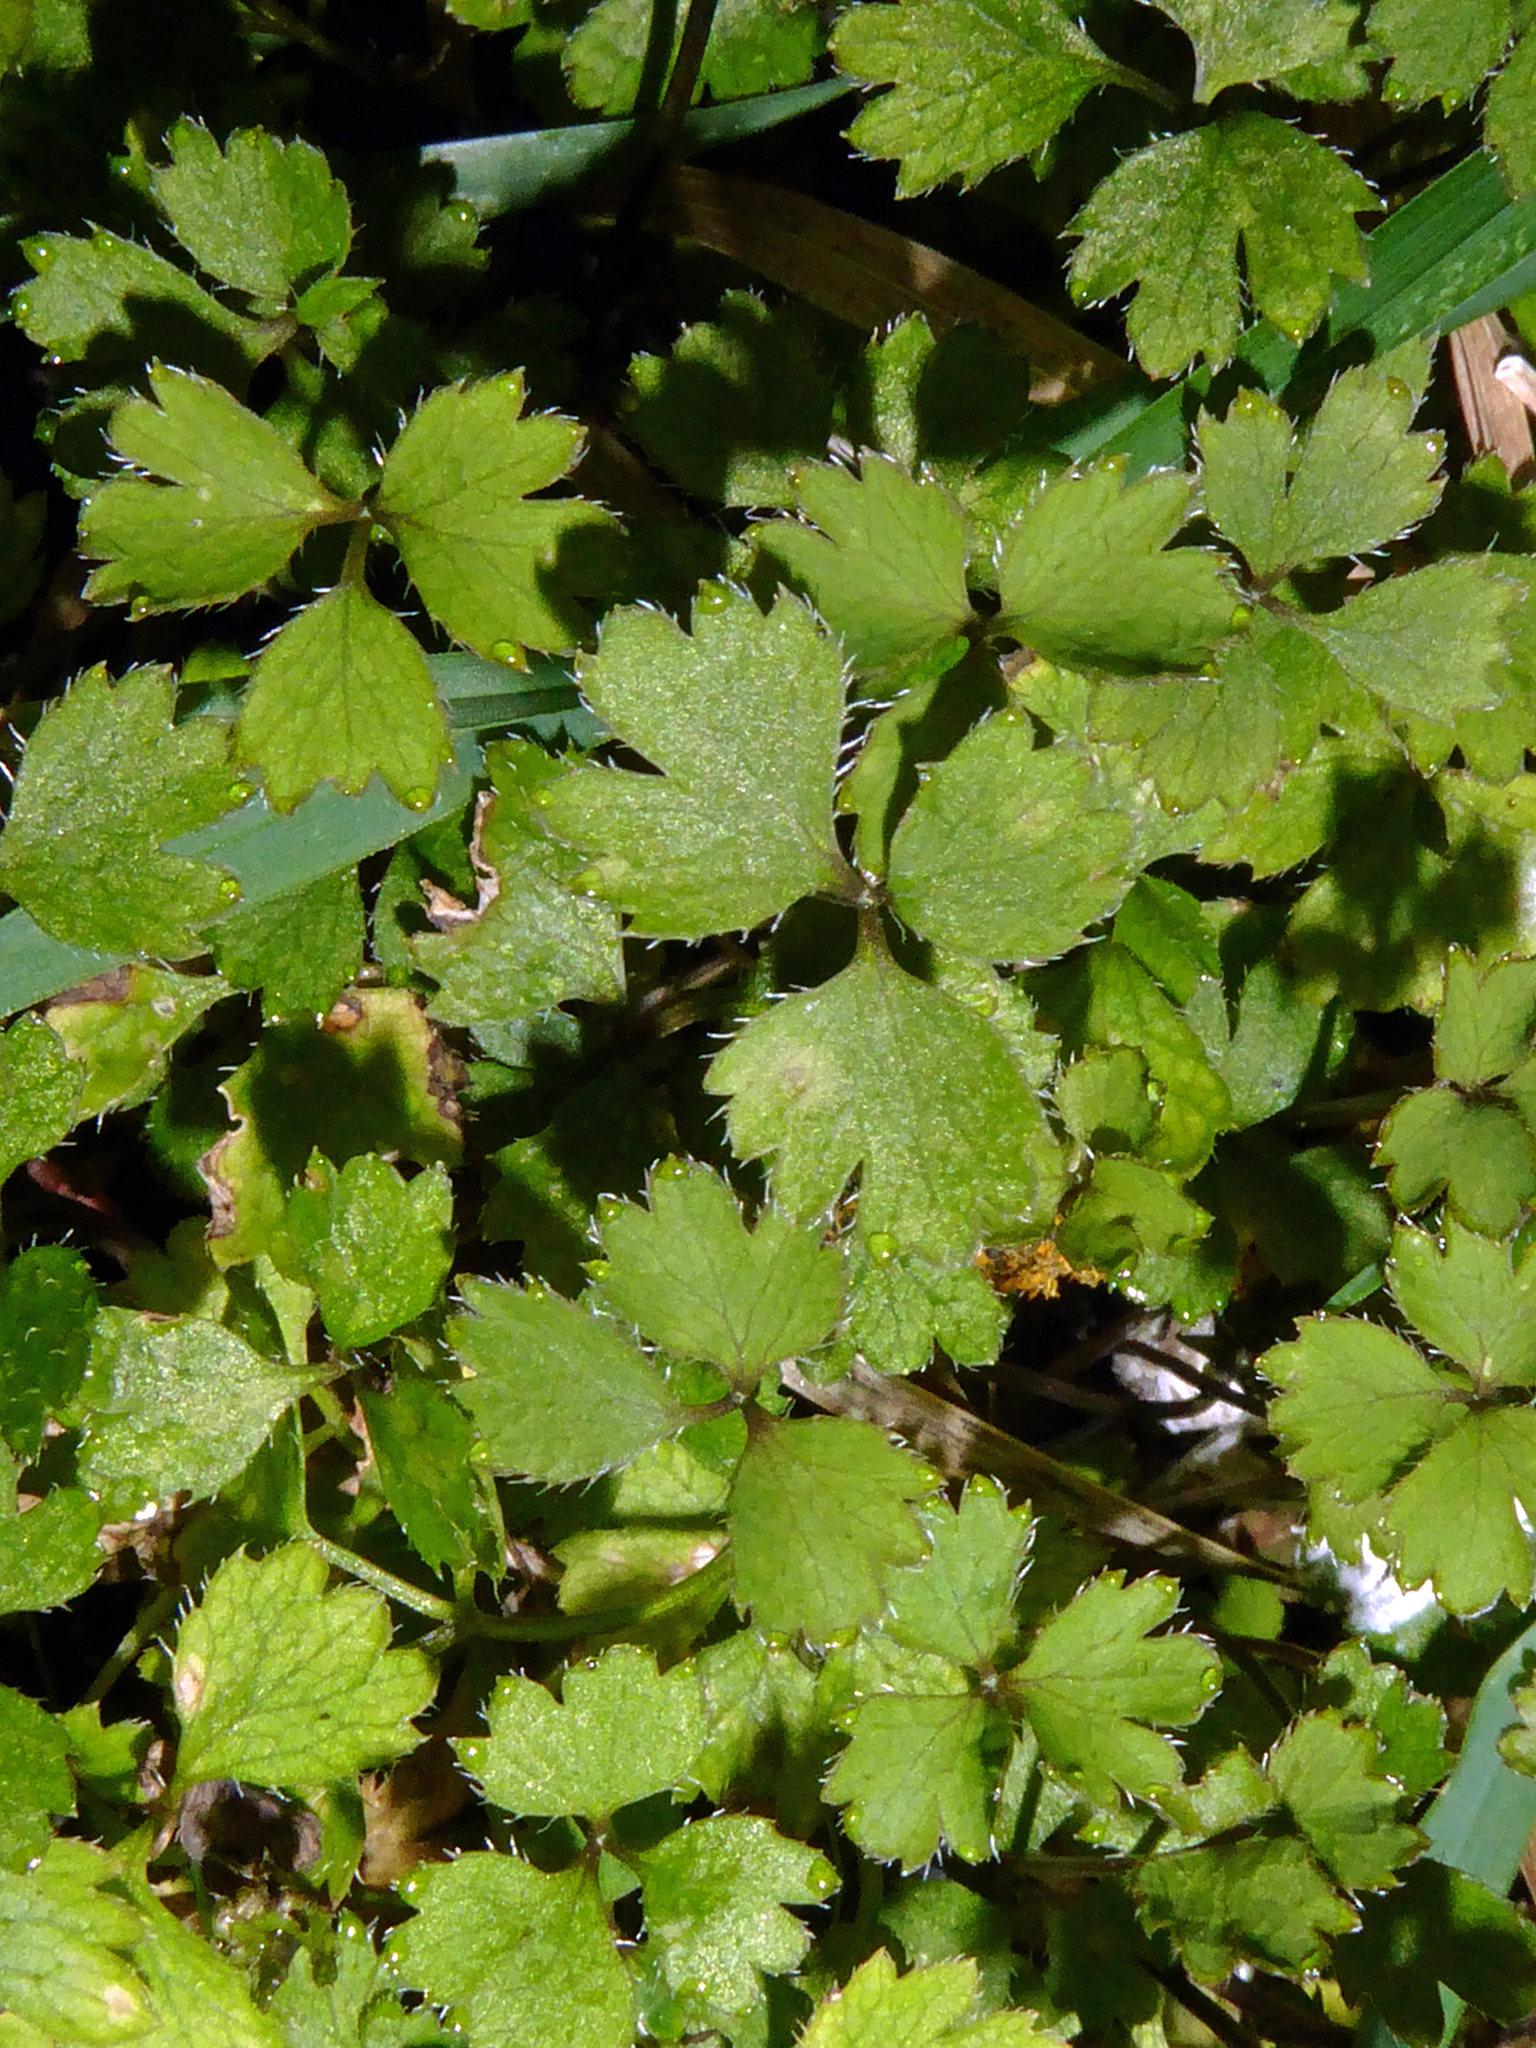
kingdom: Plantae
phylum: Tracheophyta
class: Magnoliopsida
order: Apiales
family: Apiaceae
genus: Azorella
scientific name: Azorella hookeri
